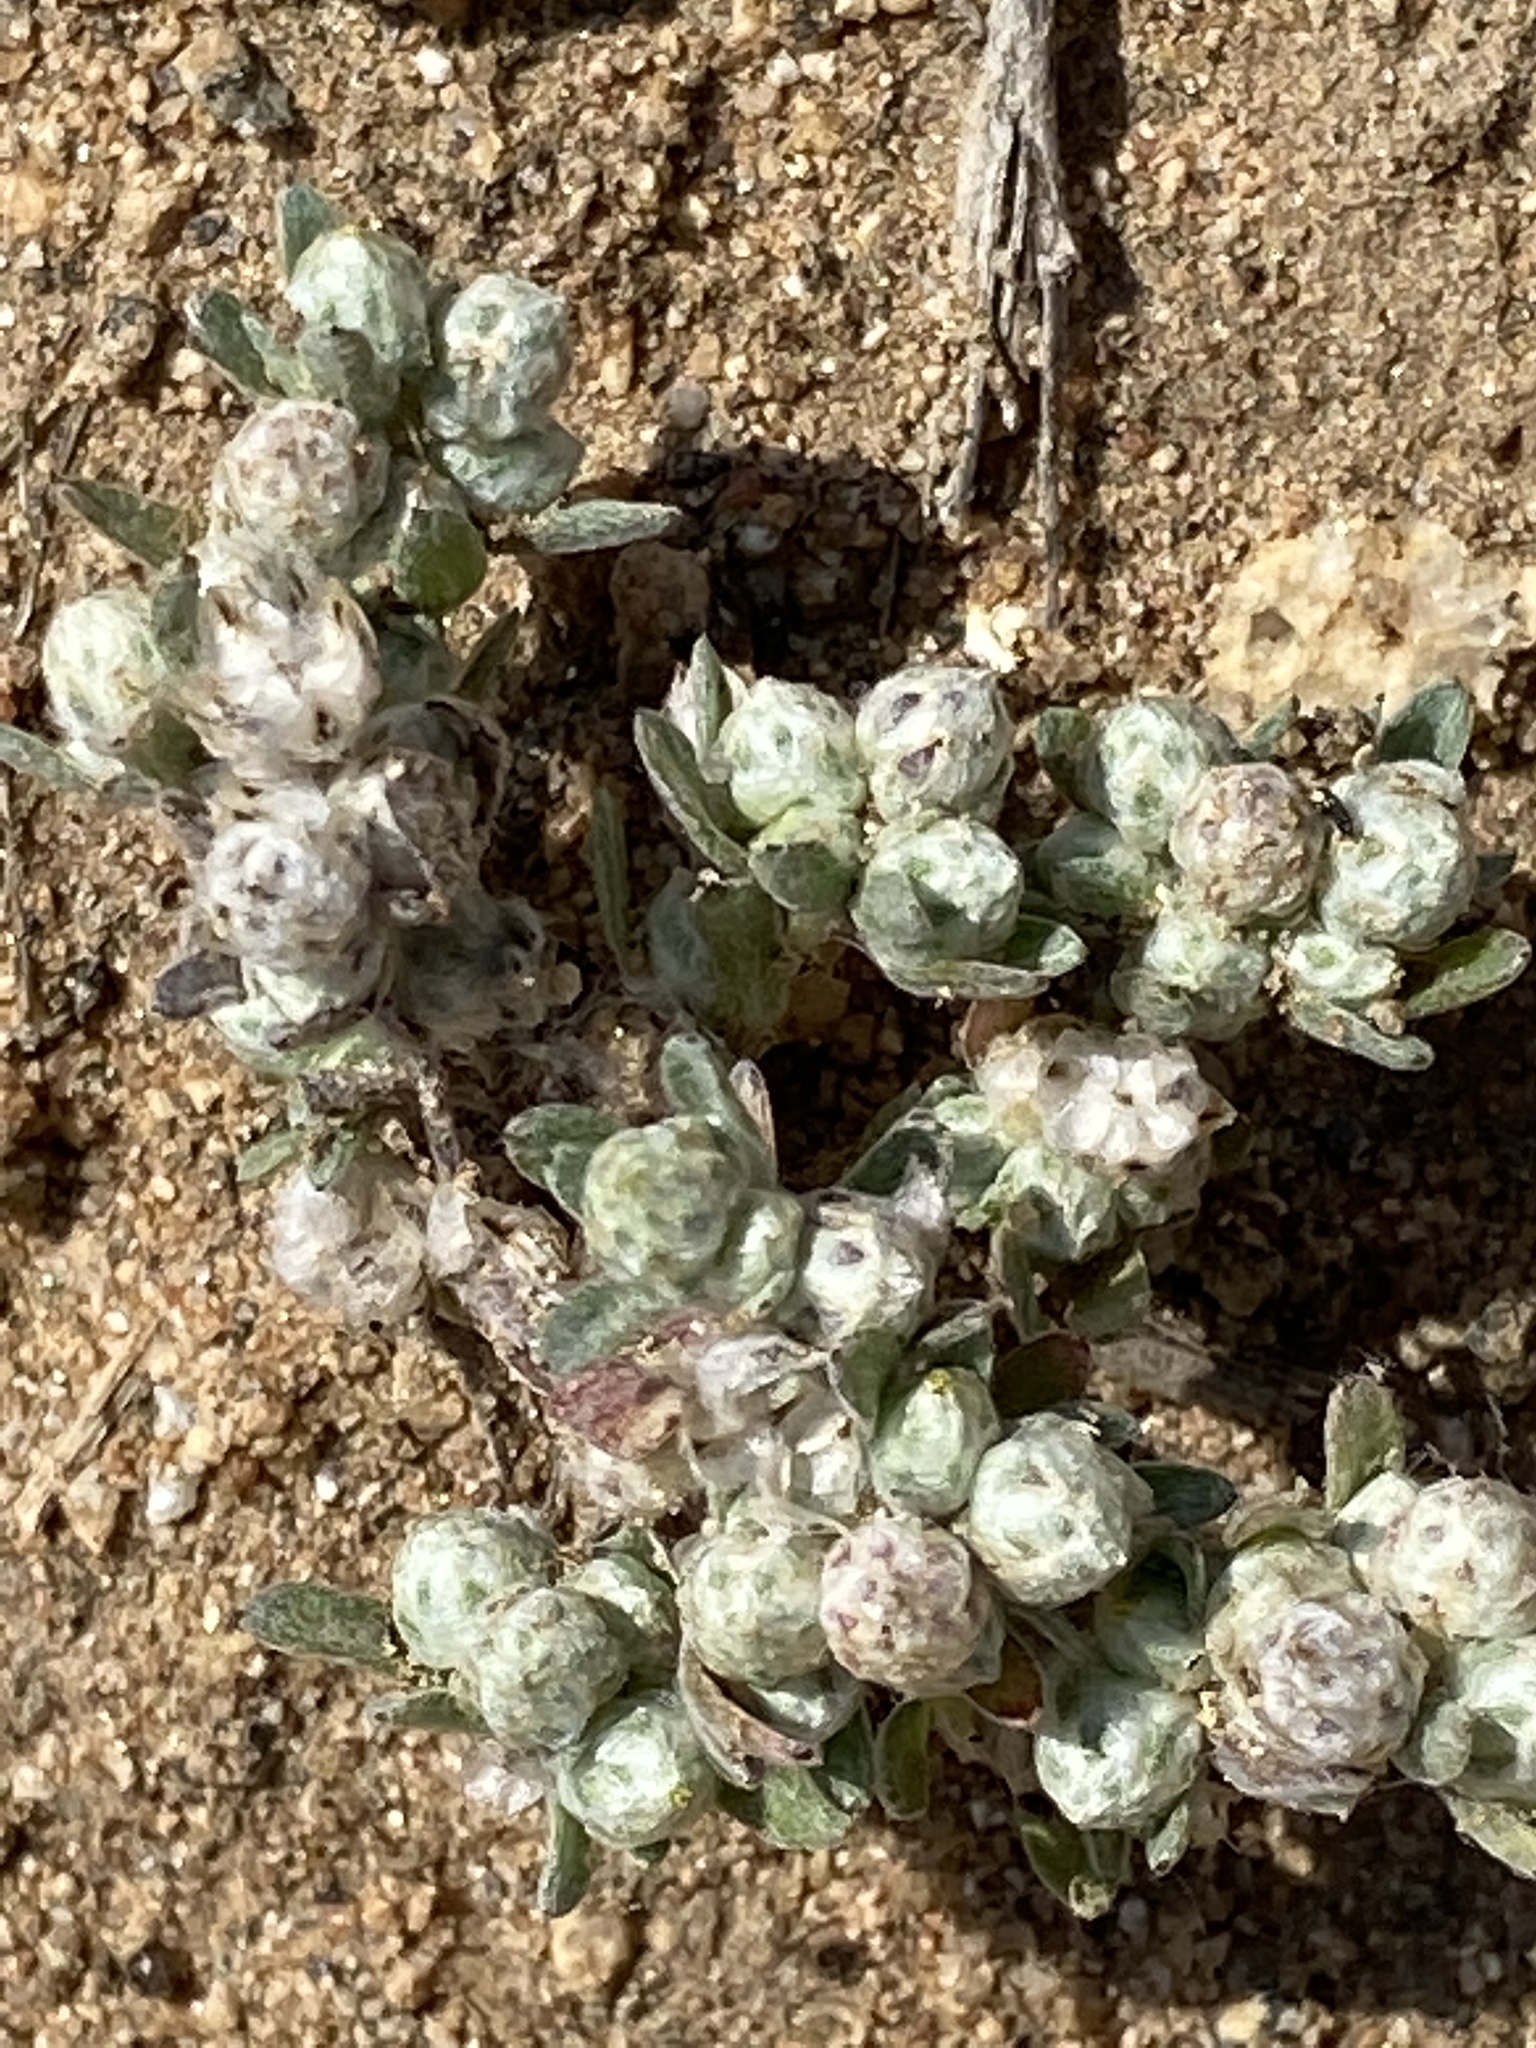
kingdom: Plantae
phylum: Tracheophyta
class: Magnoliopsida
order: Asterales
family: Asteraceae
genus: Stylocline
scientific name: Stylocline gnaphaloides
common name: Everlasting nest-straw
